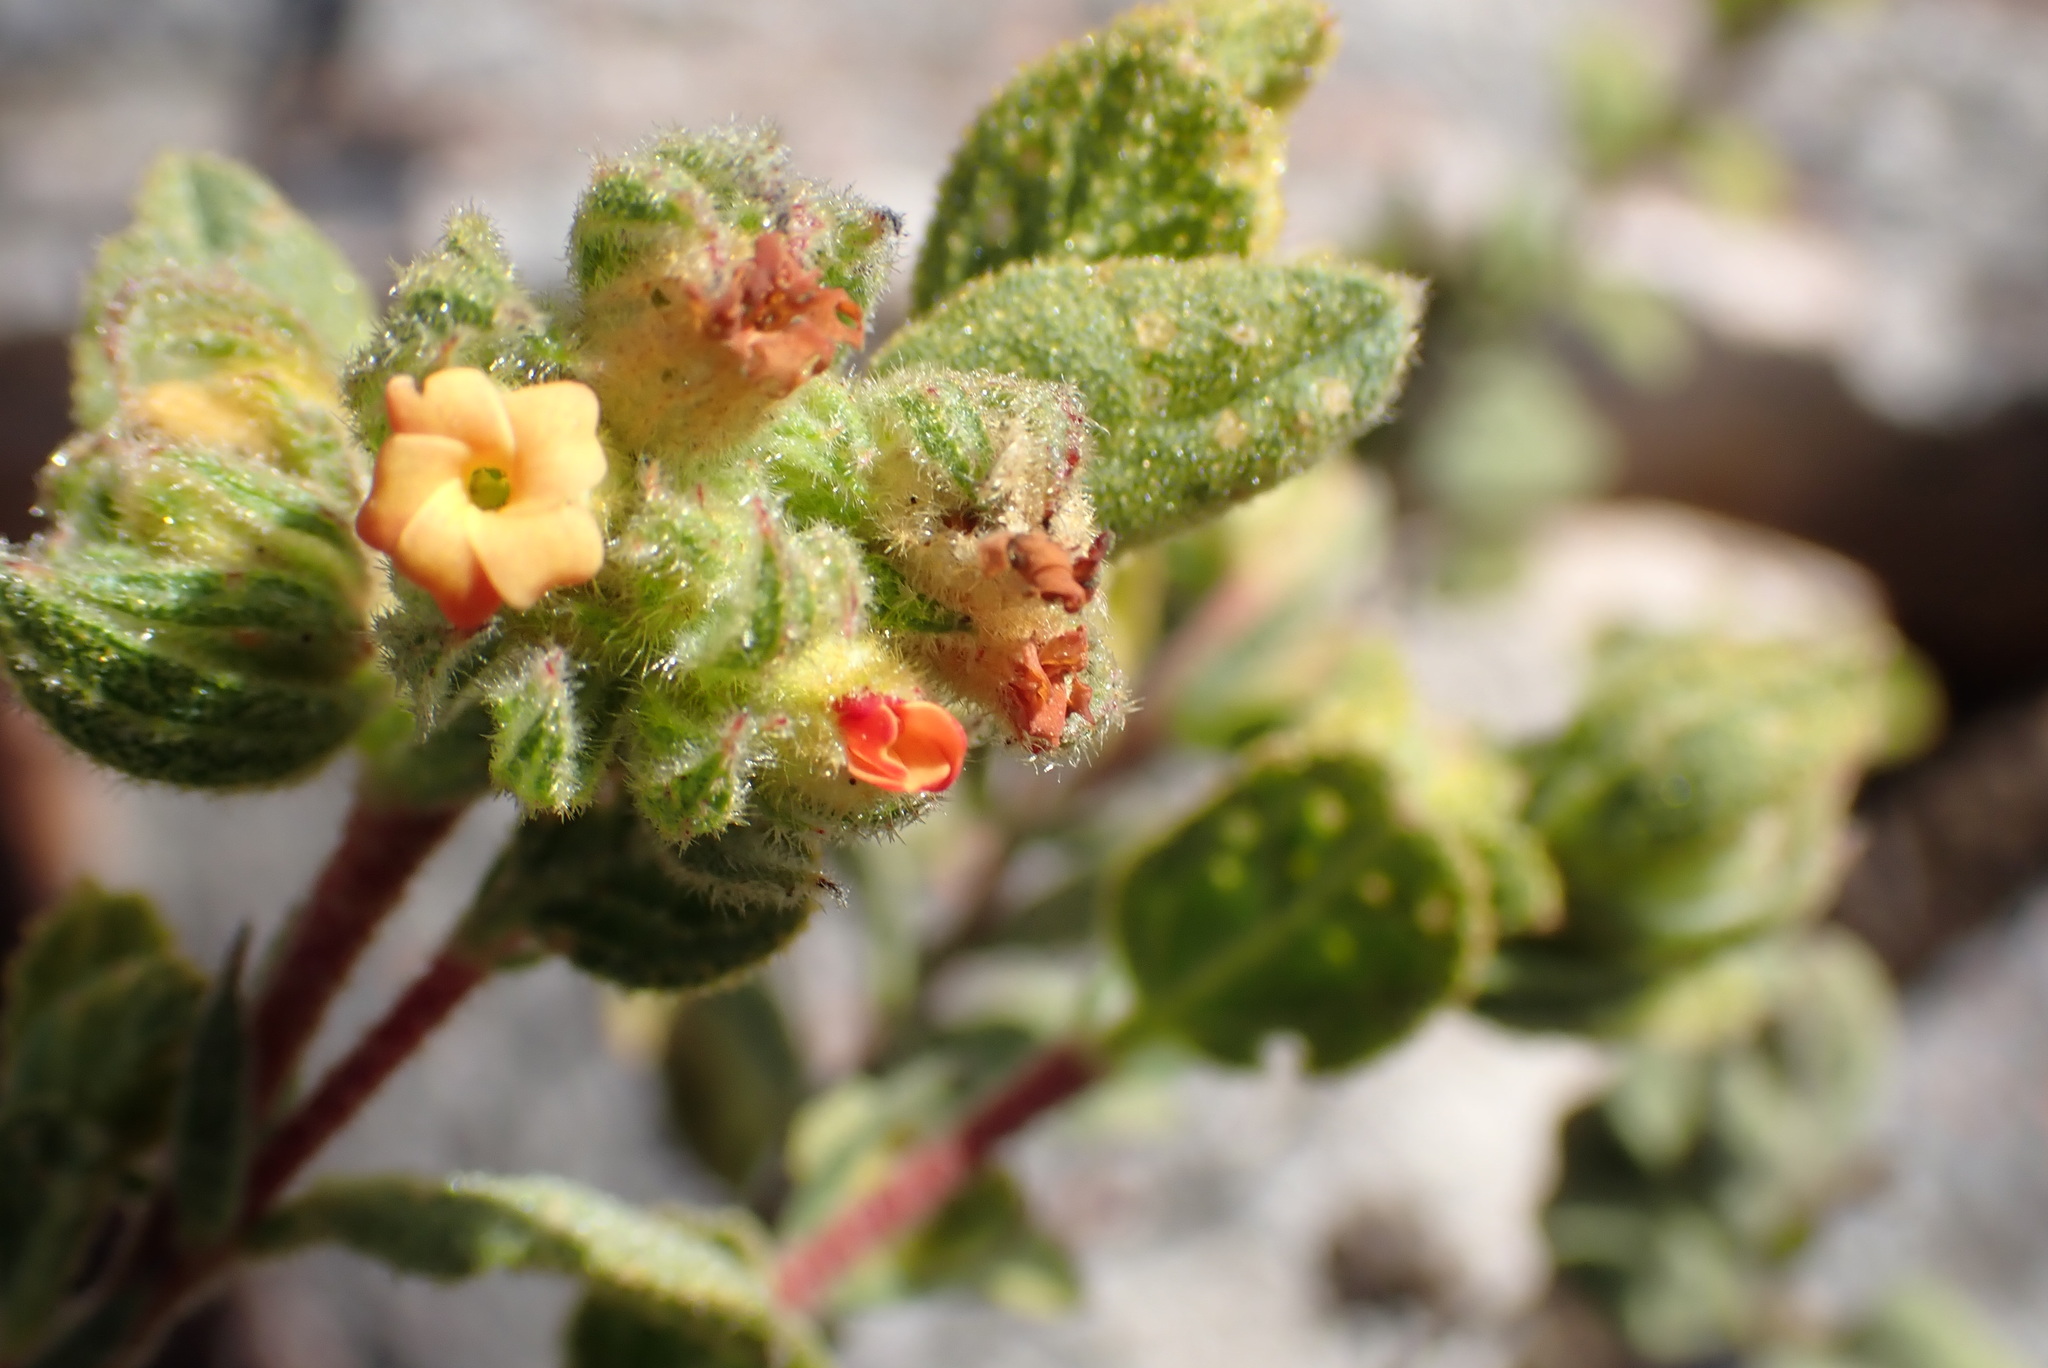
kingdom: Plantae
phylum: Tracheophyta
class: Magnoliopsida
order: Malvales
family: Malvaceae
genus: Hermannia
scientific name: Hermannia salviifolia
